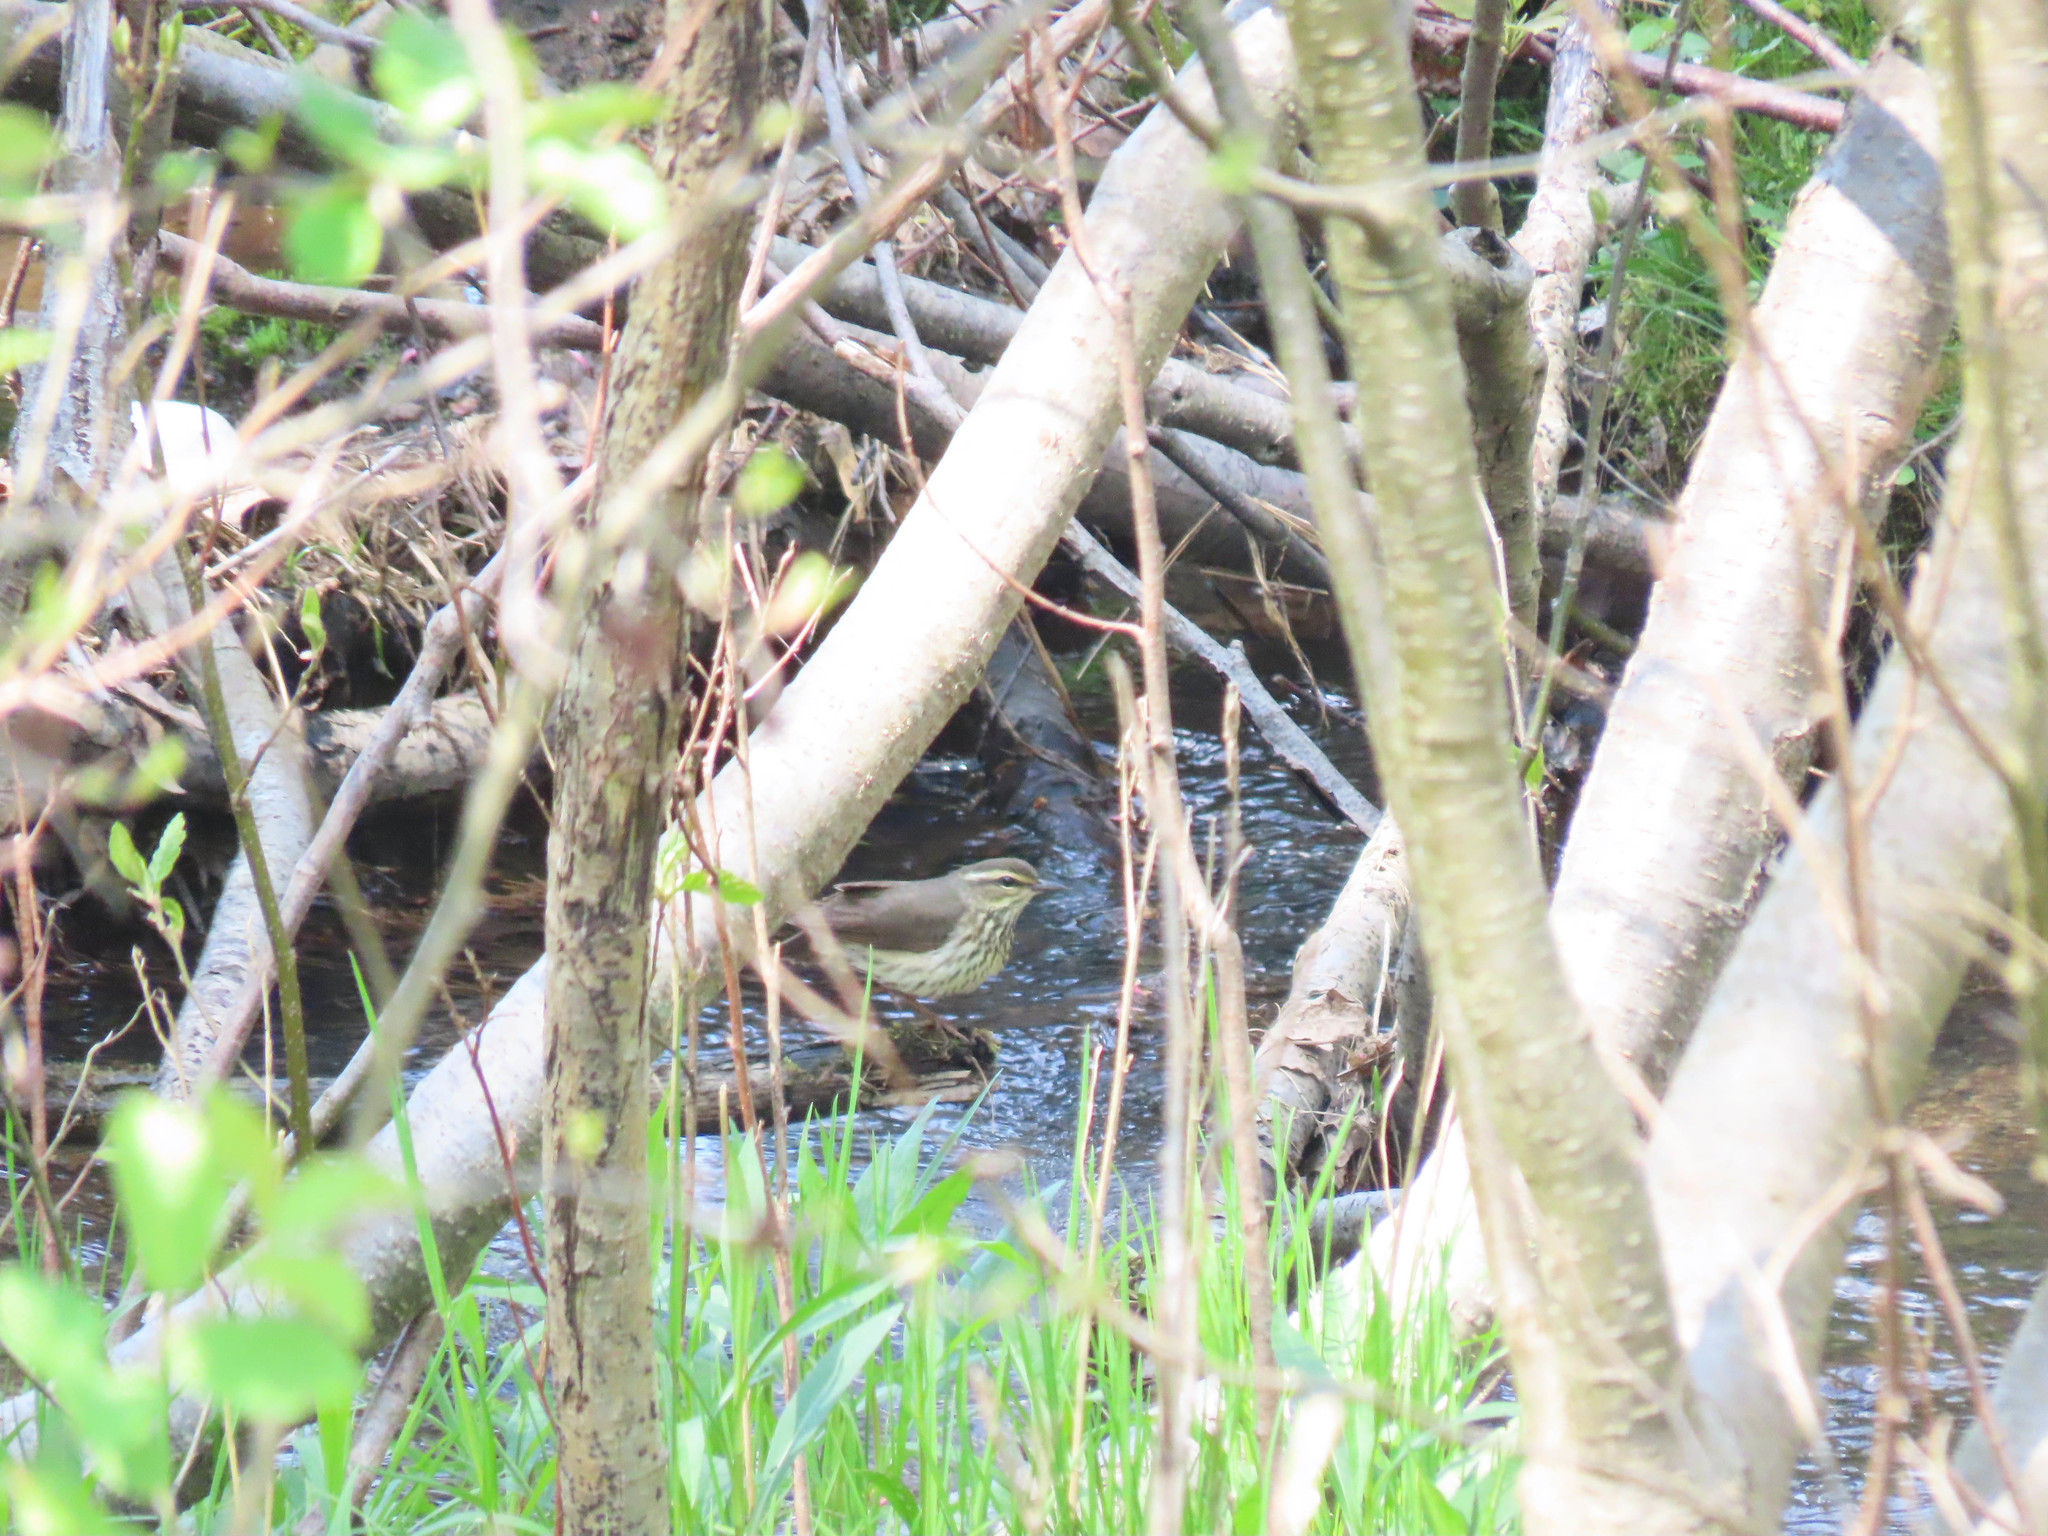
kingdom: Animalia
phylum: Chordata
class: Aves
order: Passeriformes
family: Parulidae
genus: Parkesia
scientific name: Parkesia noveboracensis
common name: Northern waterthrush
